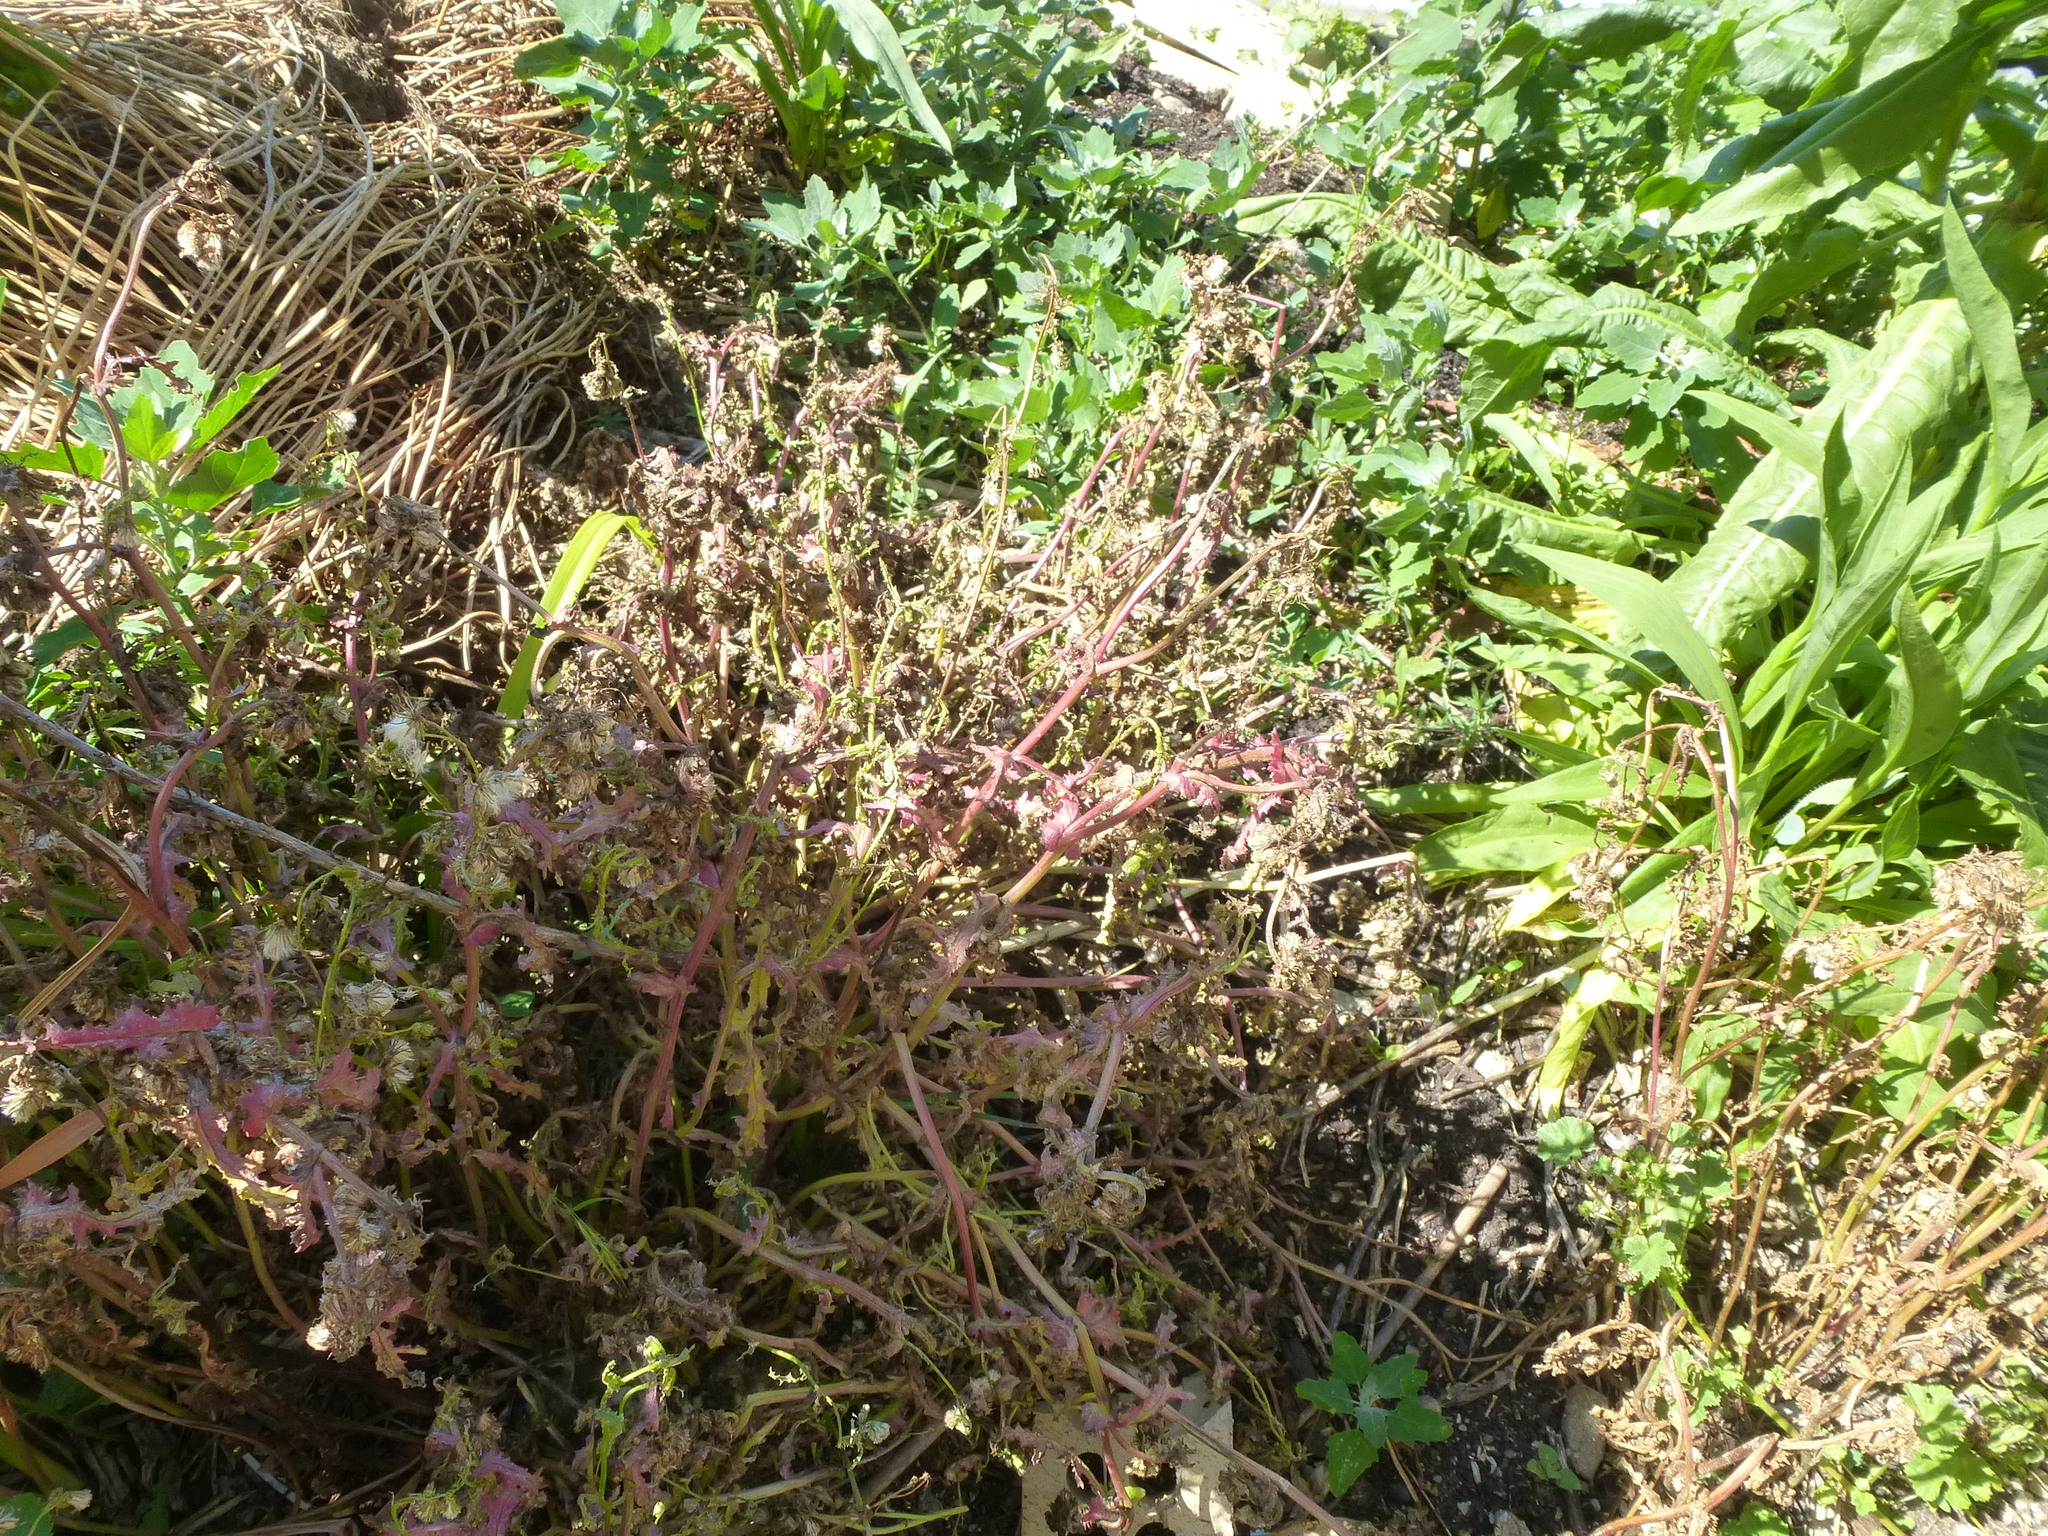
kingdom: Plantae
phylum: Tracheophyta
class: Magnoliopsida
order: Asterales
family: Asteraceae
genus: Senecio
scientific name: Senecio vulgaris
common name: Old-man-in-the-spring
